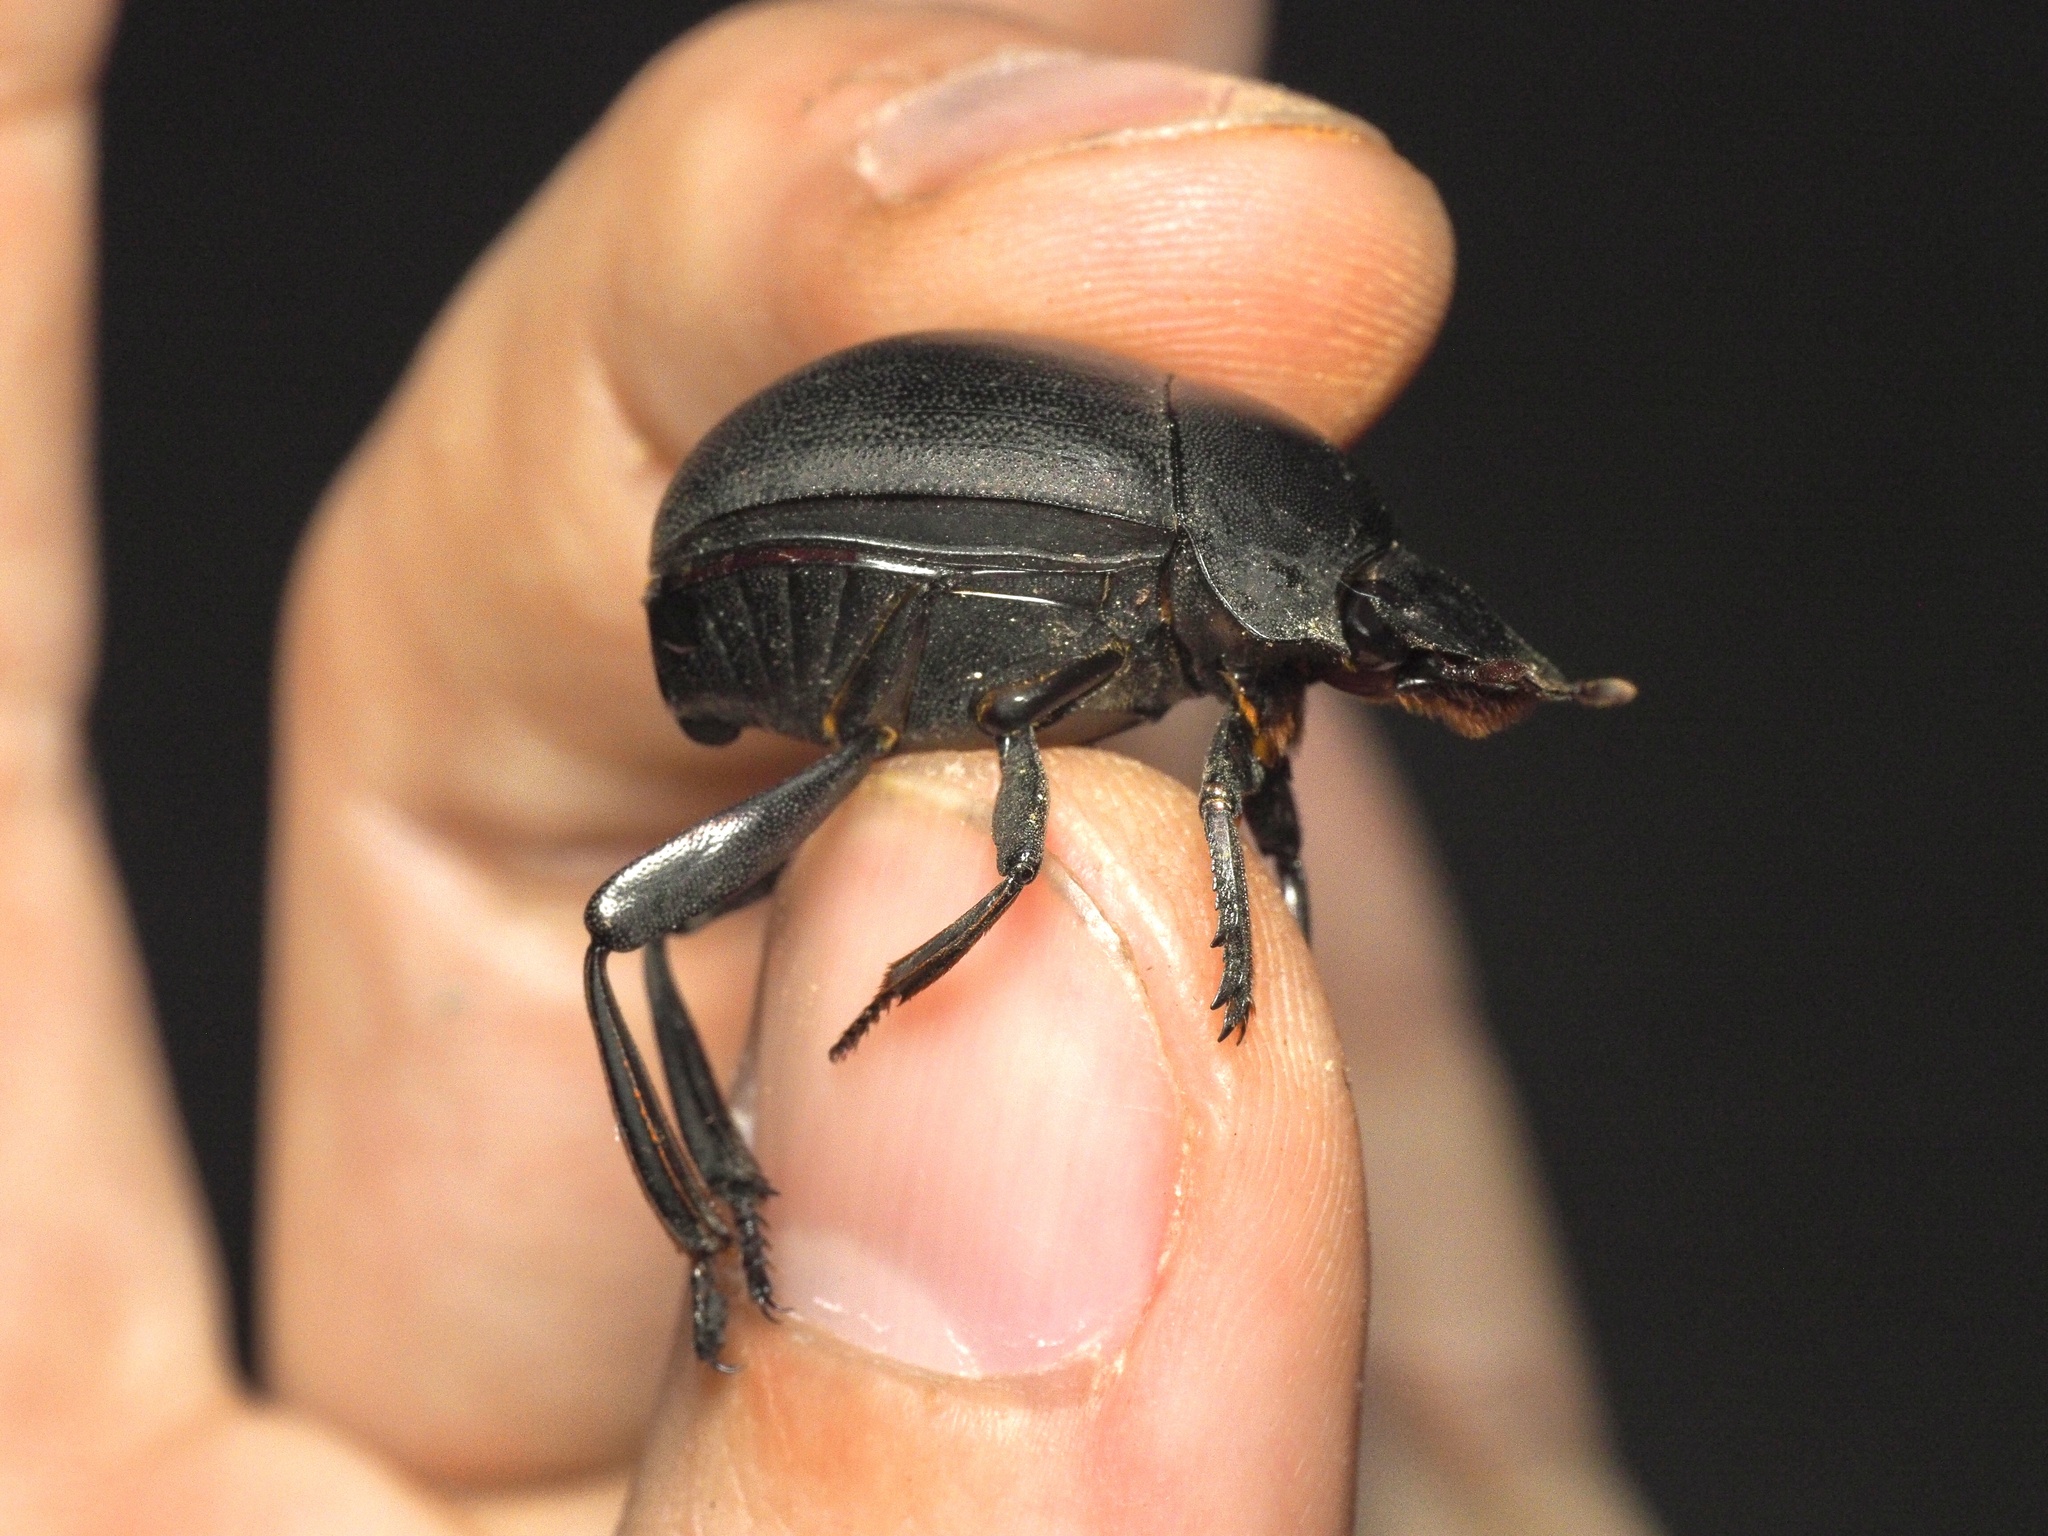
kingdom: Animalia
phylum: Arthropoda
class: Insecta
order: Coleoptera
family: Scarabaeidae
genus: Chalconotus
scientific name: Chalconotus convexus
